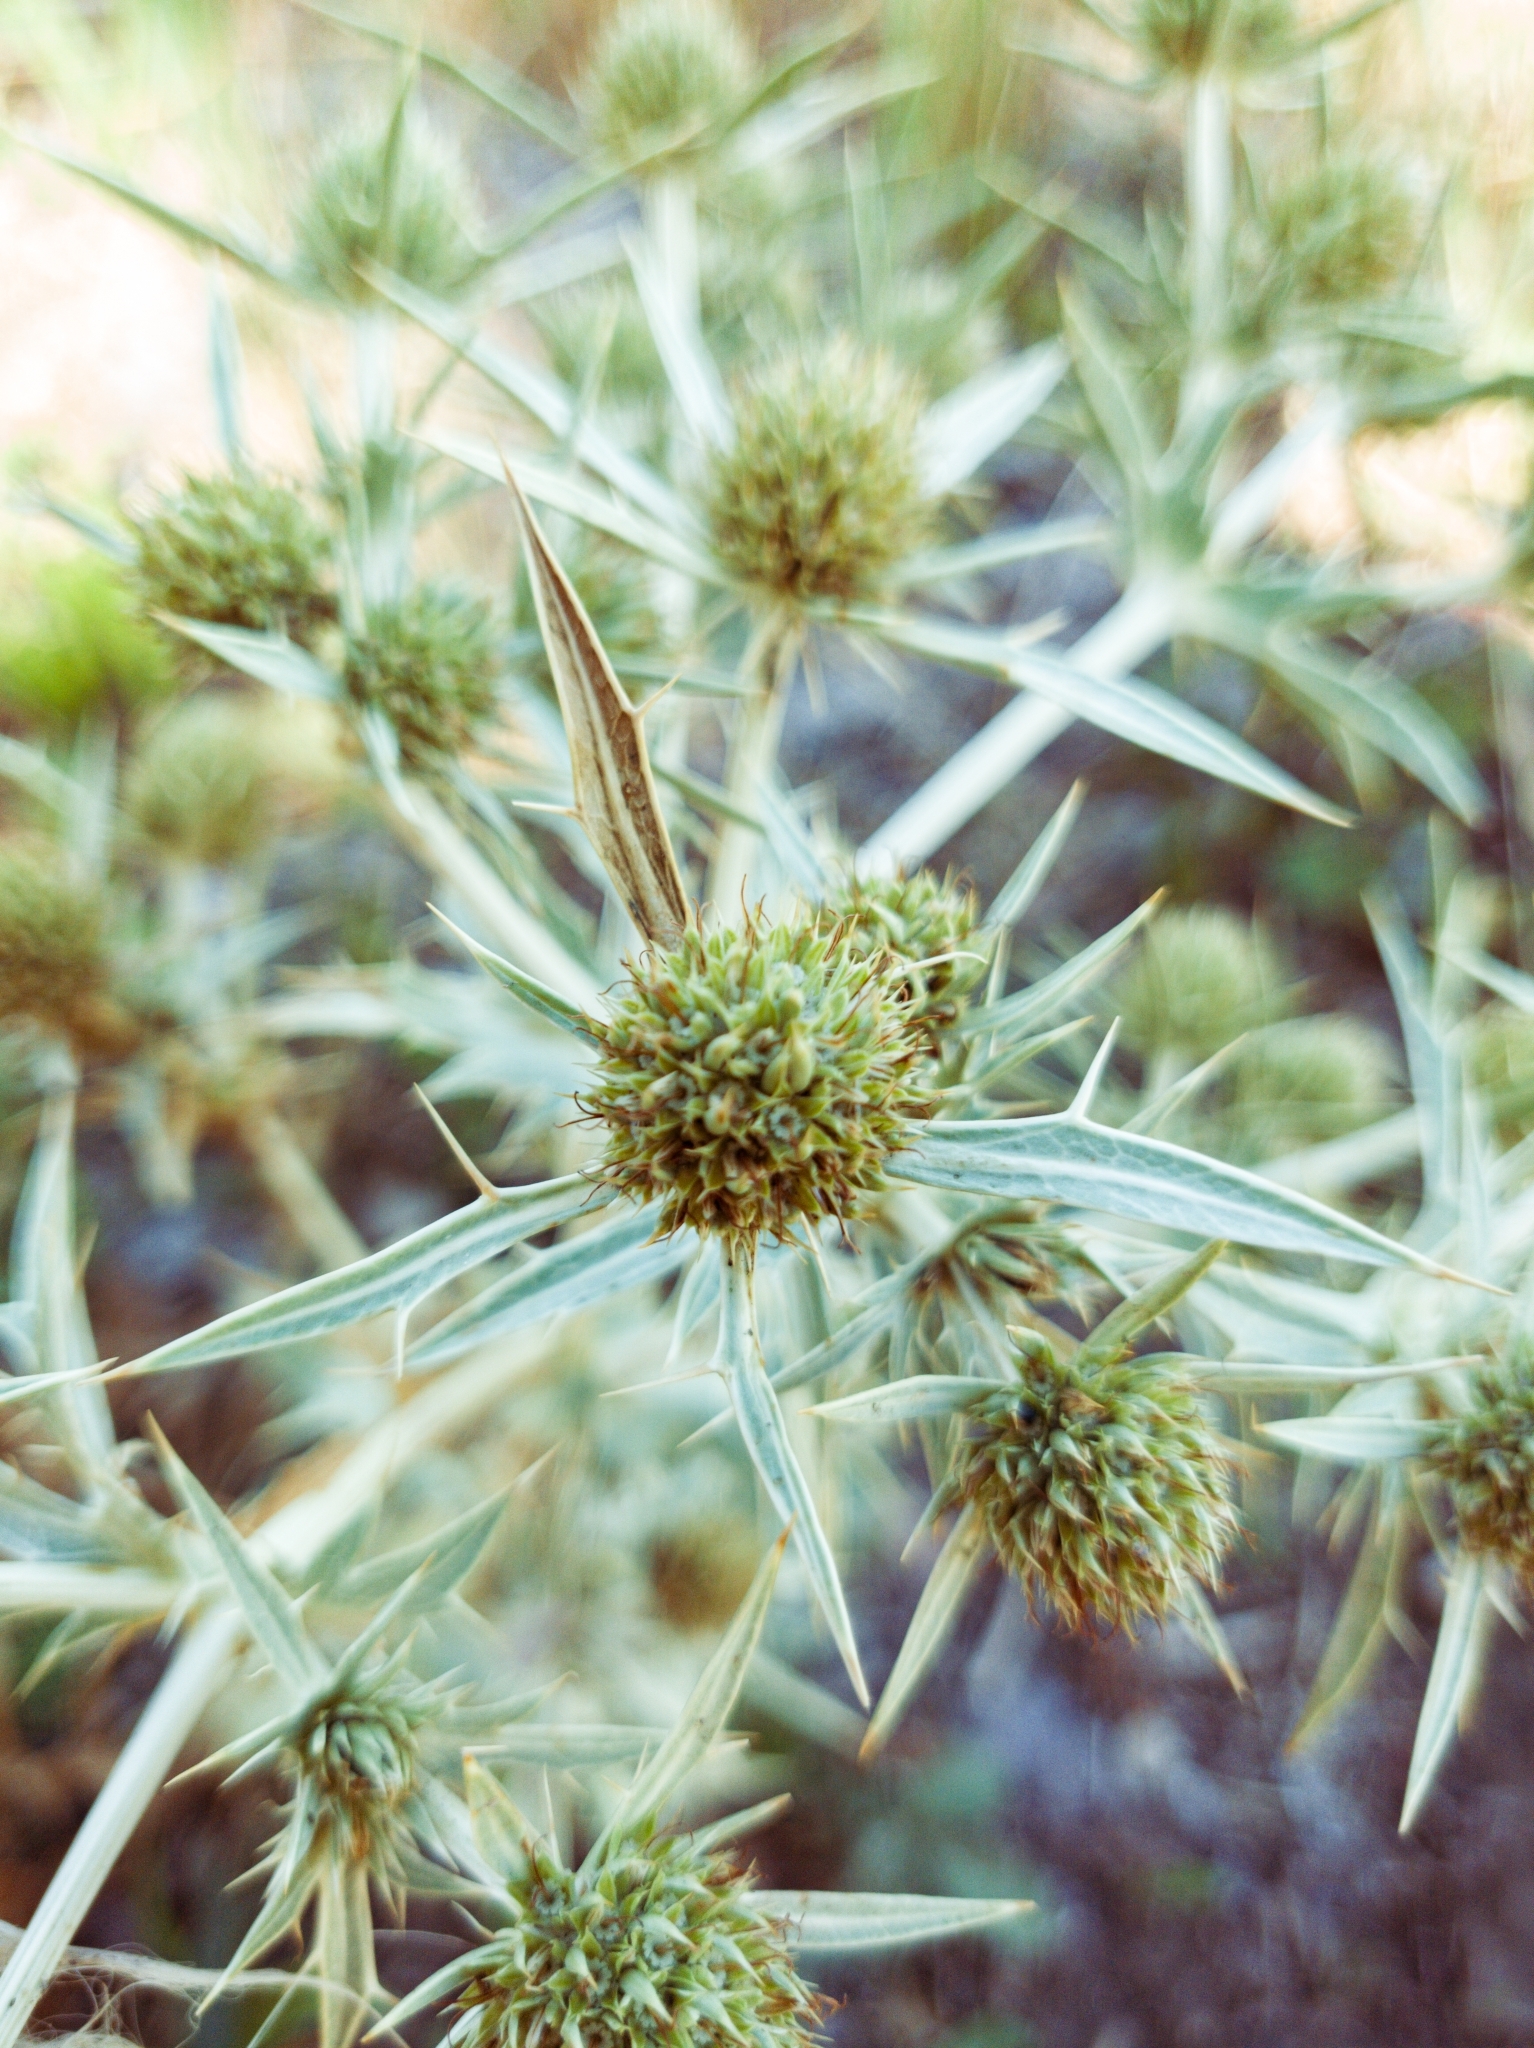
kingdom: Plantae
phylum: Tracheophyta
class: Magnoliopsida
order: Apiales
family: Apiaceae
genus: Eryngium
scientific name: Eryngium campestre
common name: Field eryngo
